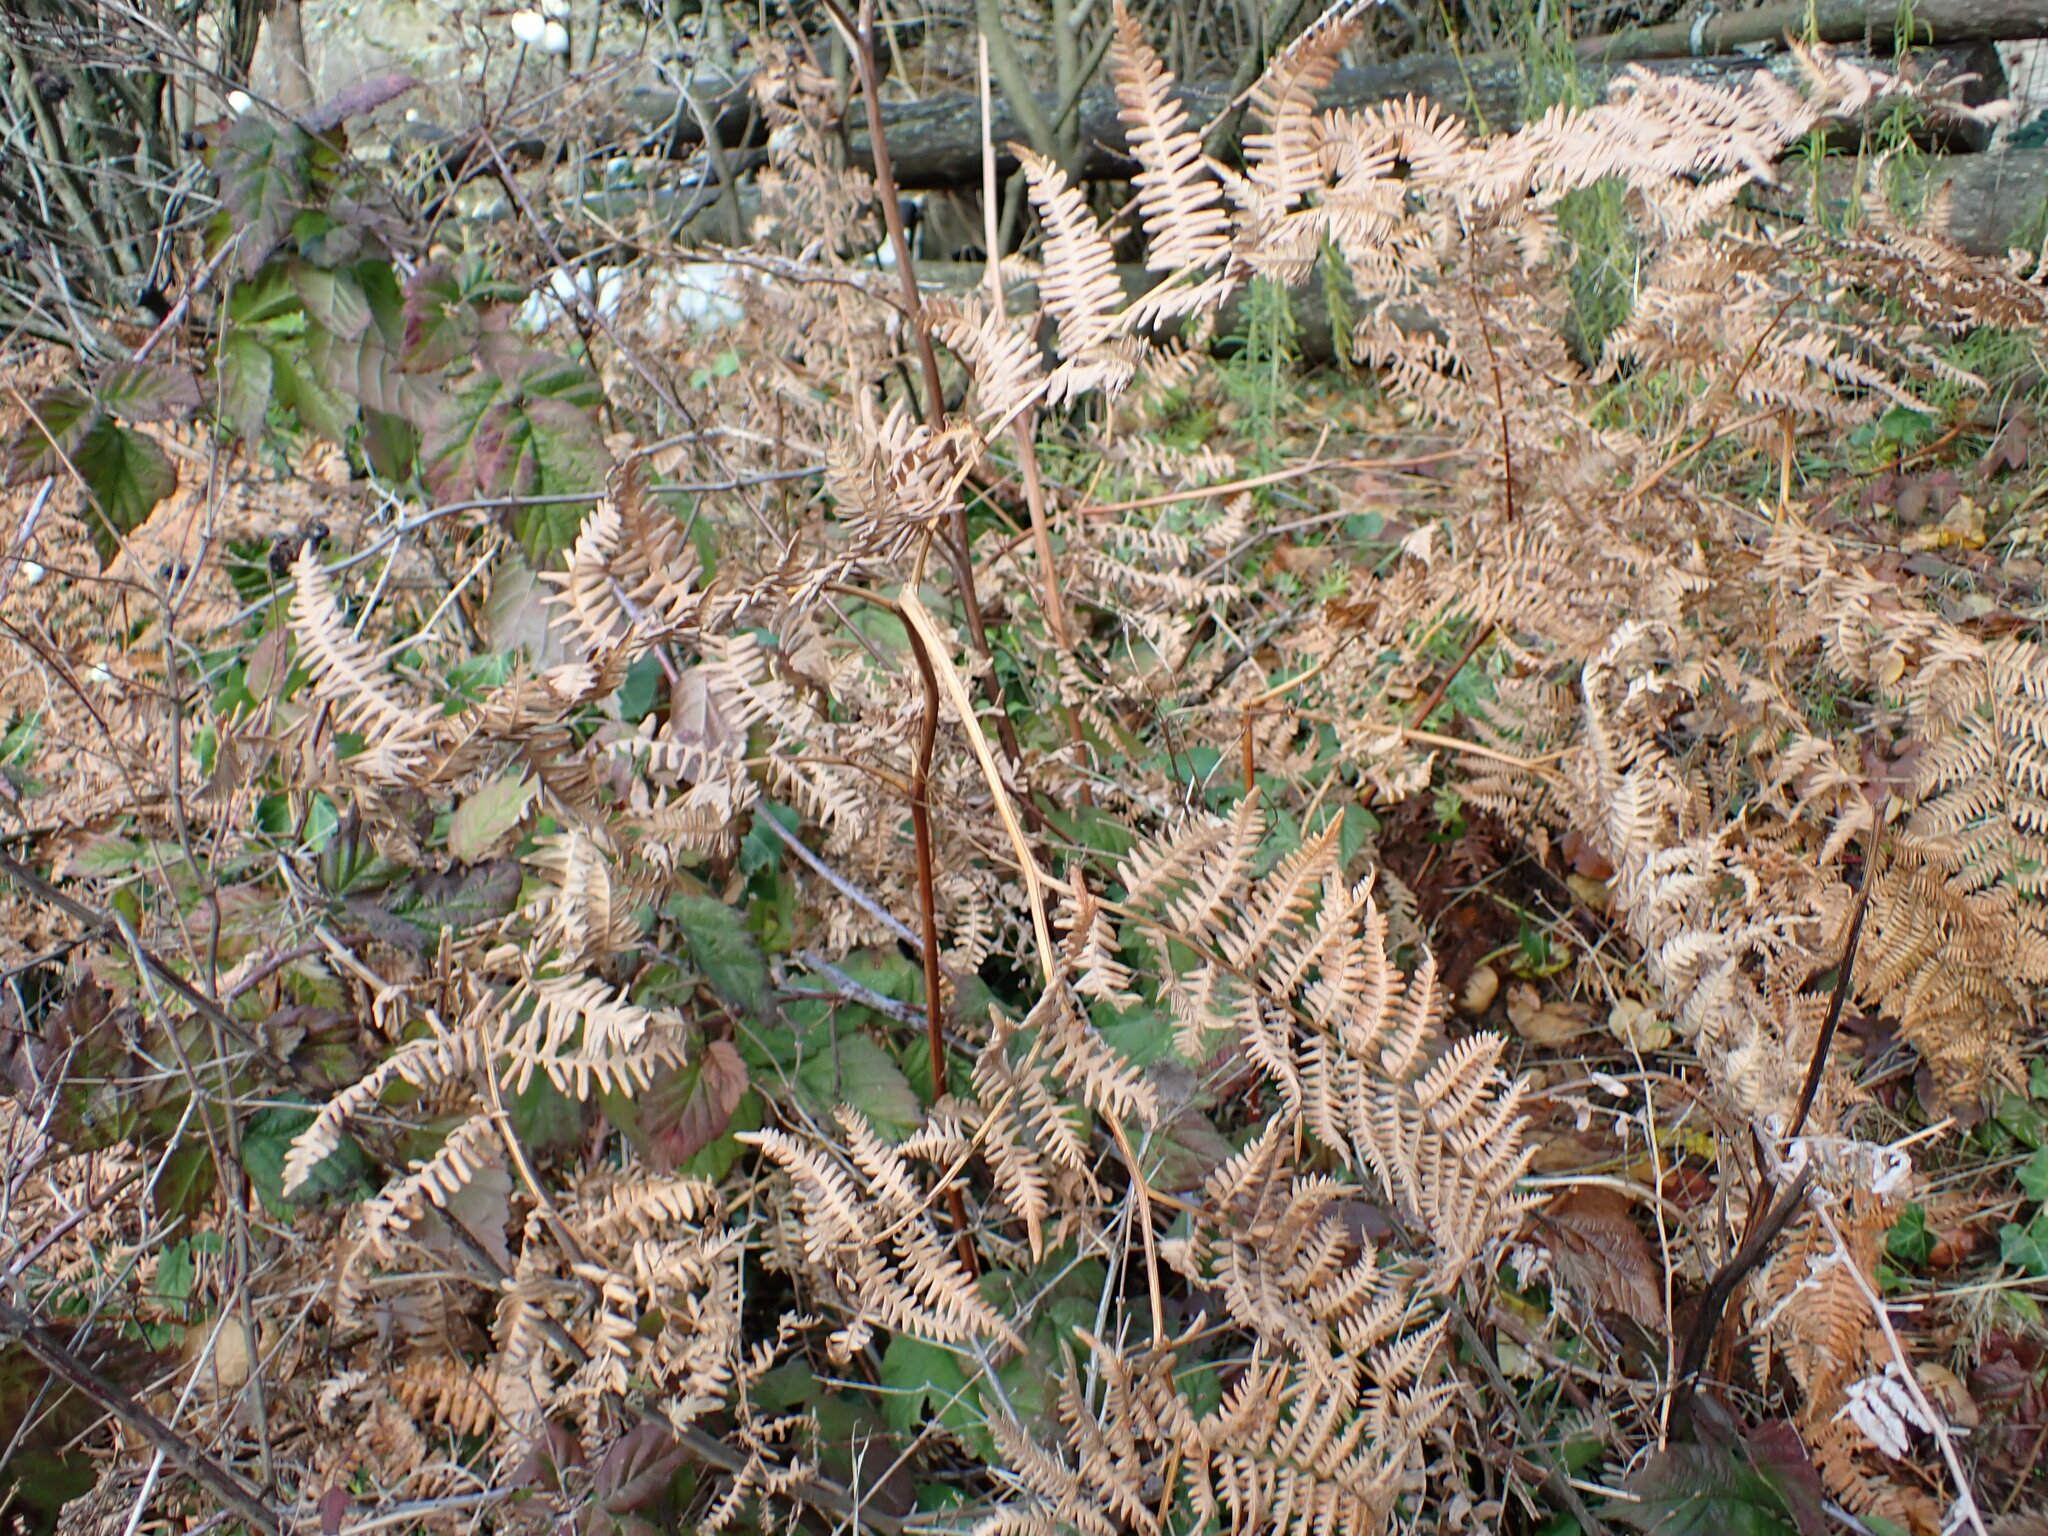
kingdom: Plantae
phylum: Tracheophyta
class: Polypodiopsida
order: Polypodiales
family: Dennstaedtiaceae
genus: Pteridium
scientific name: Pteridium aquilinum
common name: Bracken
